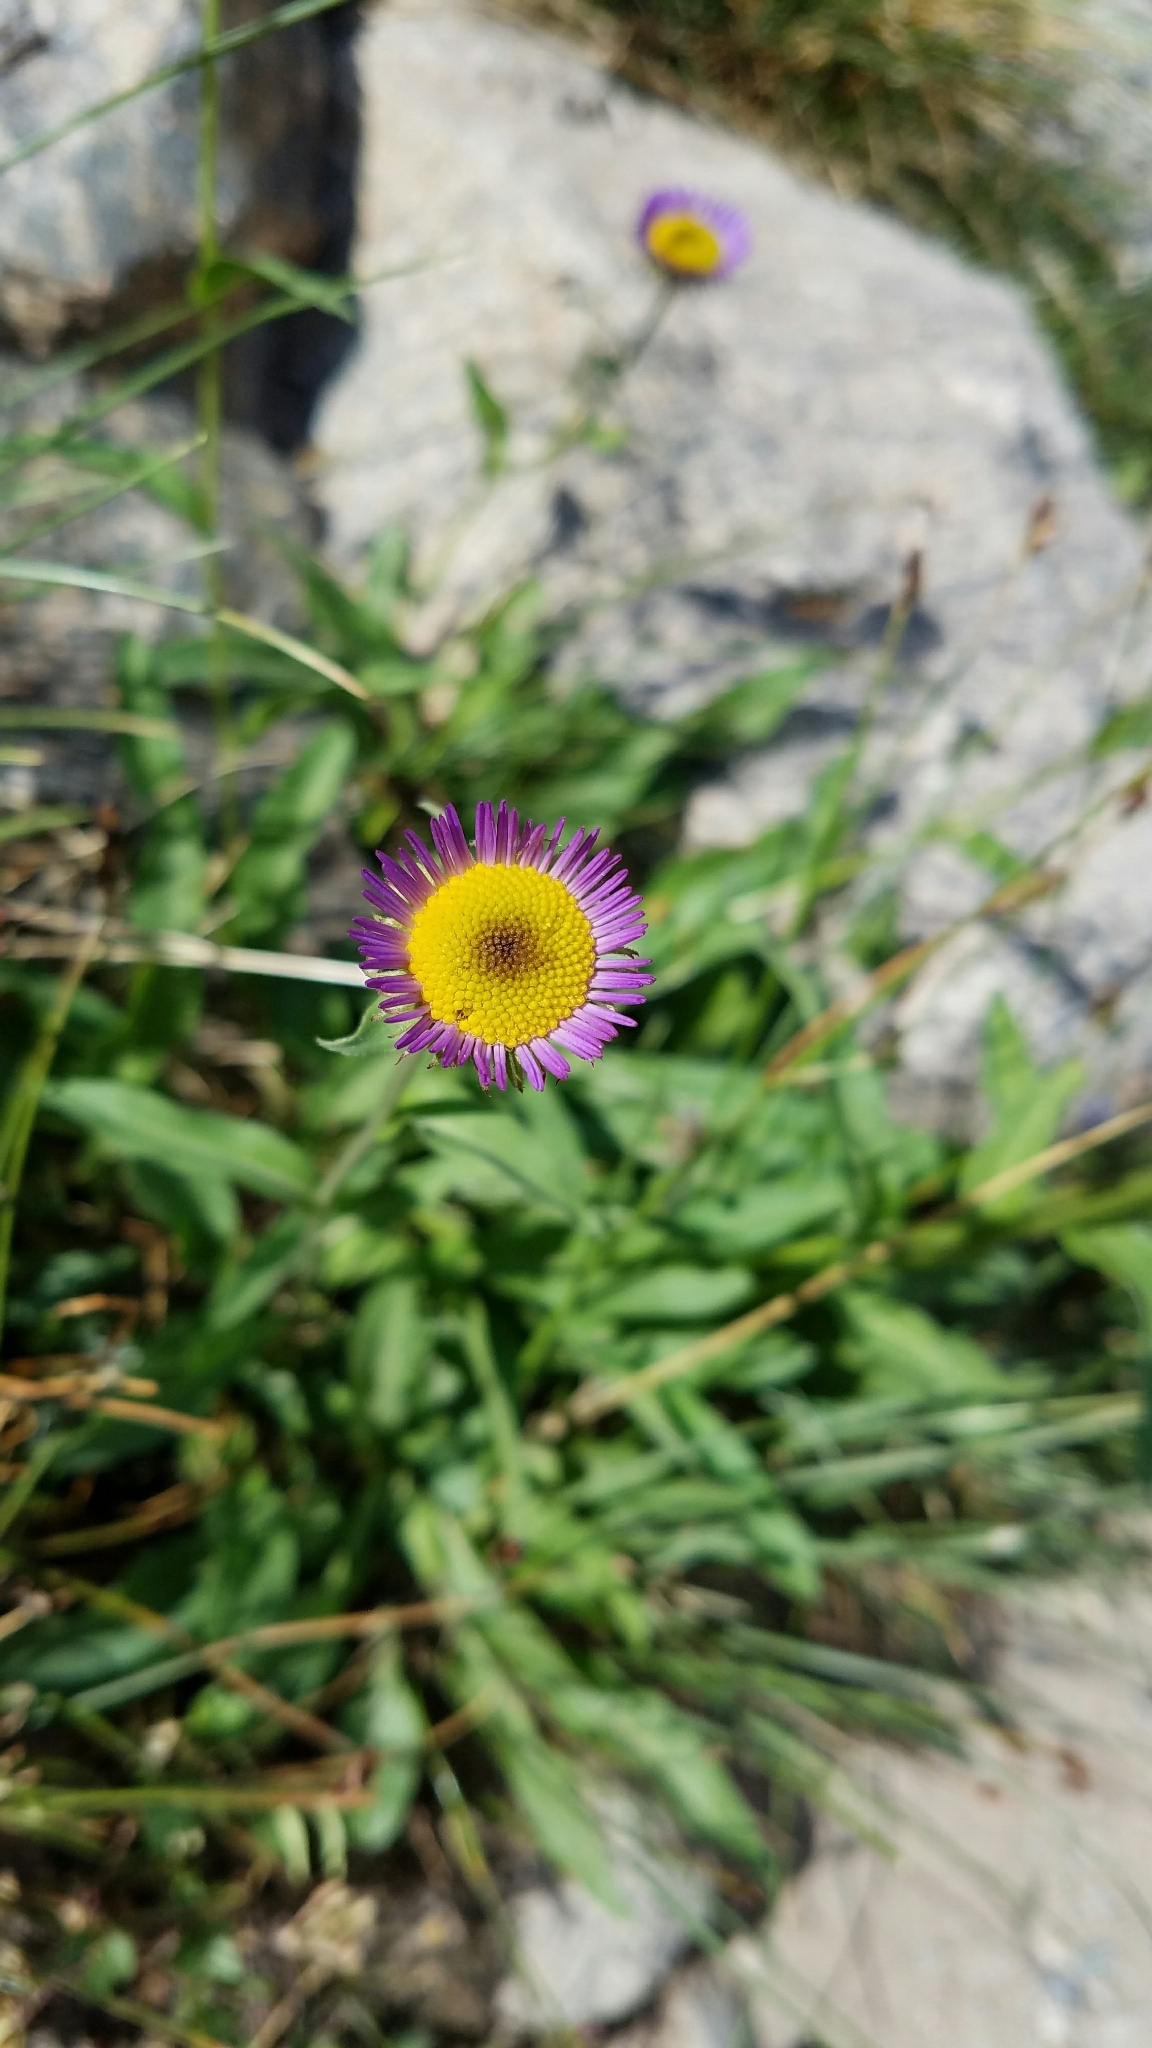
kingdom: Plantae
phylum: Tracheophyta
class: Magnoliopsida
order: Asterales
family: Asteraceae
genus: Dieteria
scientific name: Dieteria canescens
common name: Hoary-aster
